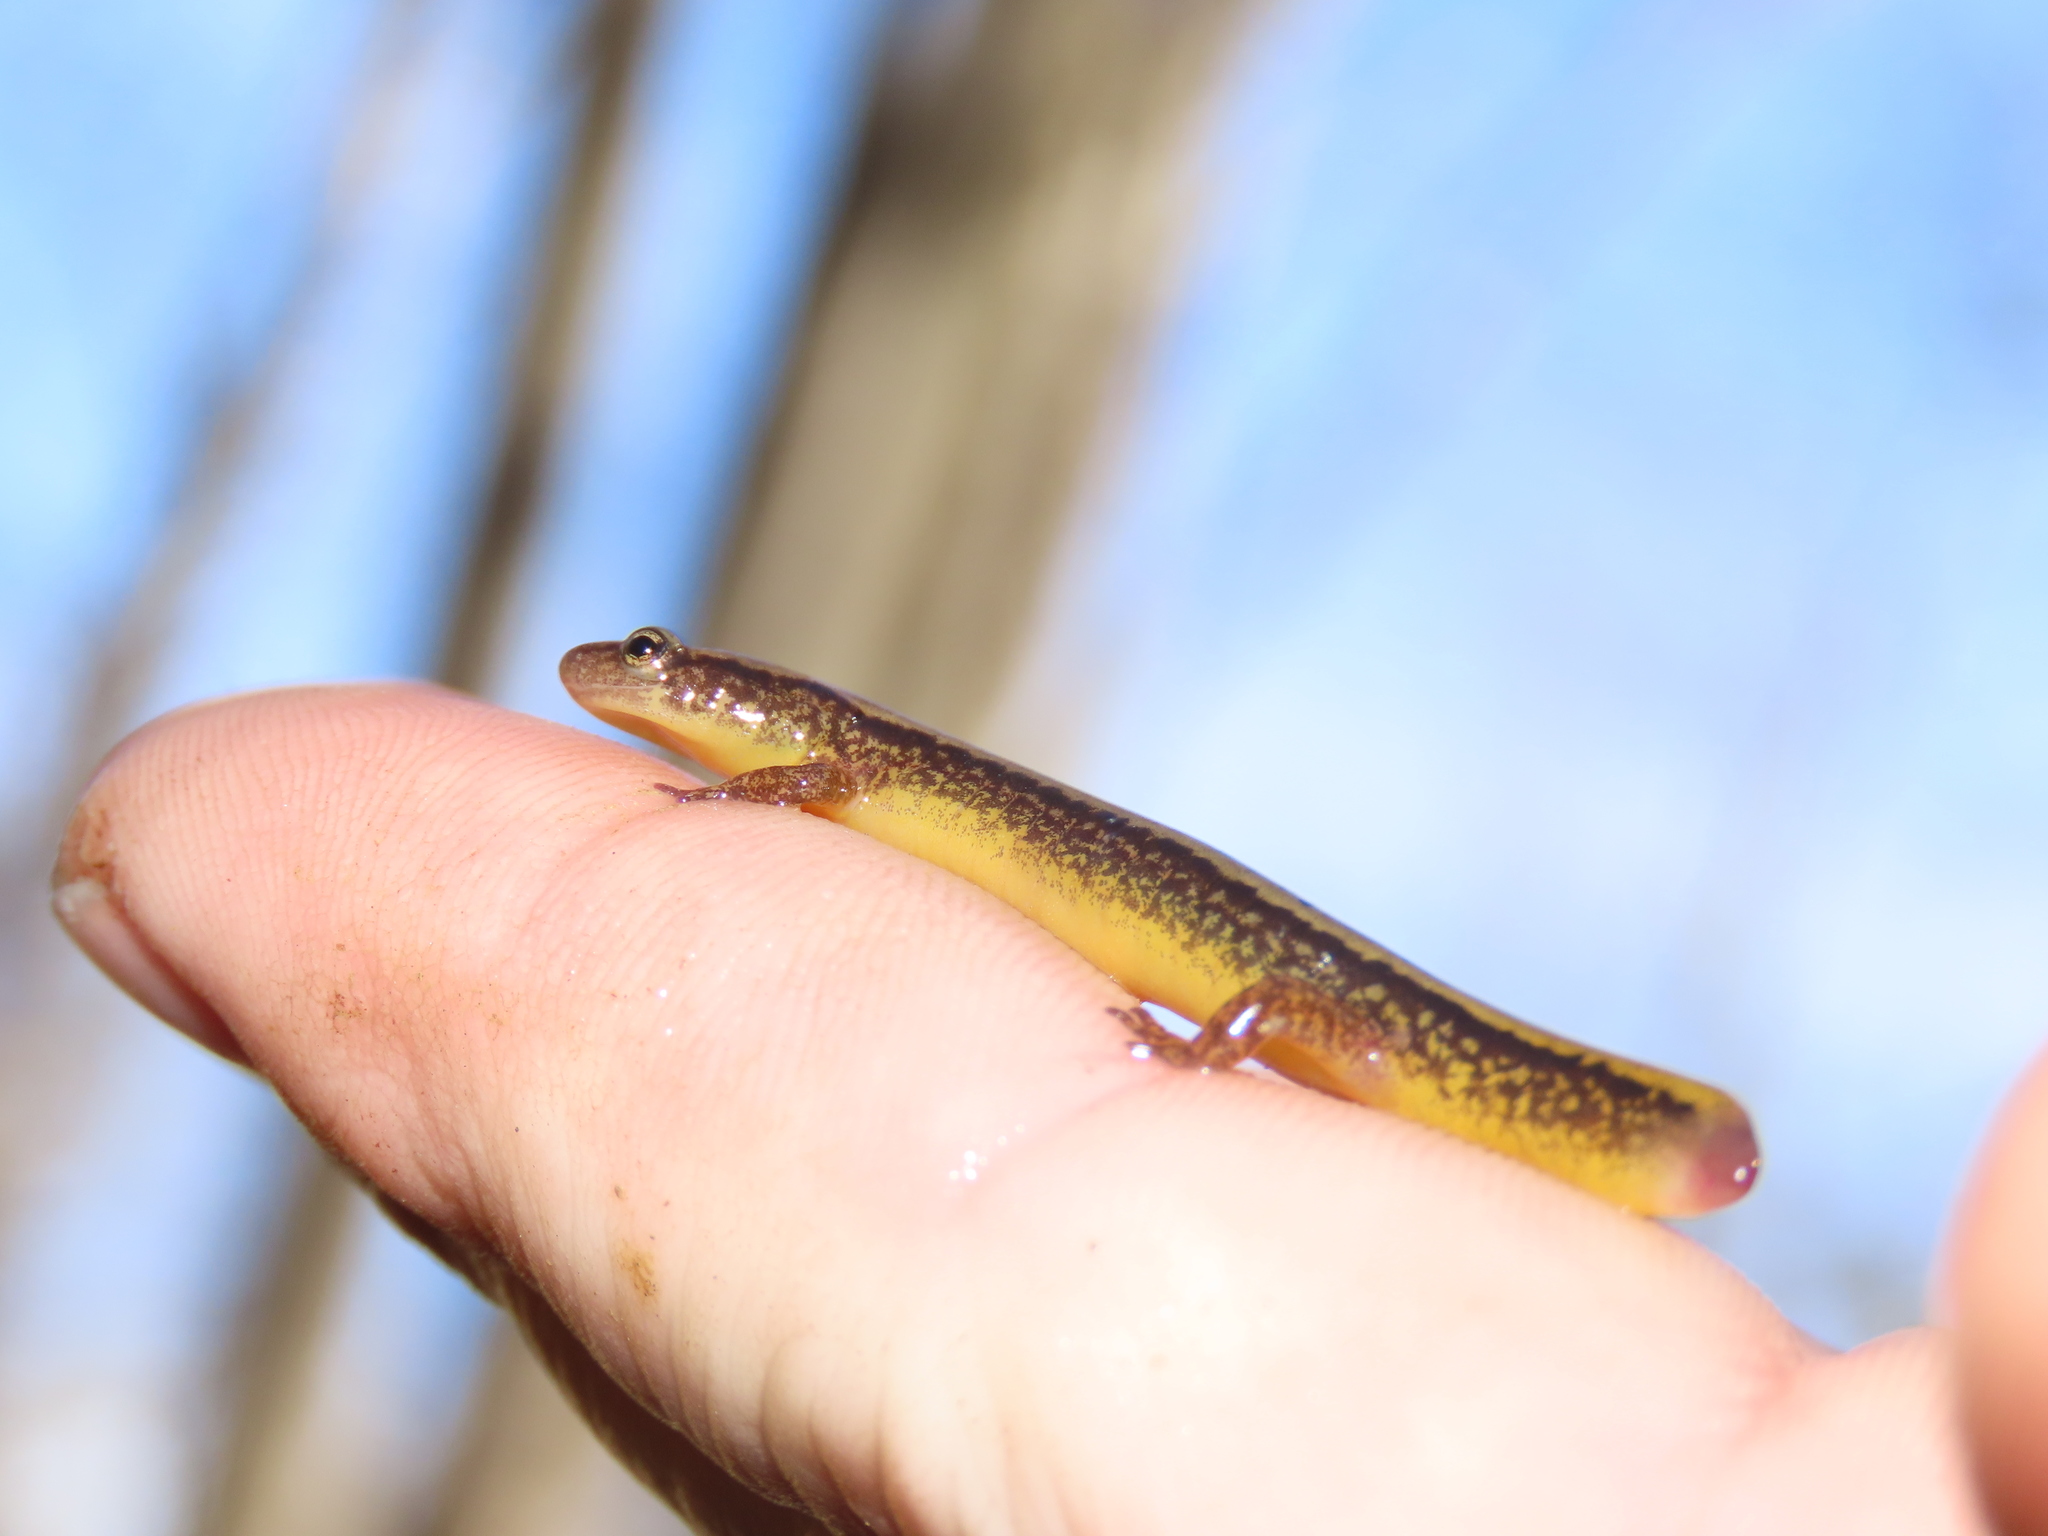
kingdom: Animalia
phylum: Chordata
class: Amphibia
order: Caudata
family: Plethodontidae
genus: Eurycea
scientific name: Eurycea bislineata
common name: Northern two-lined salamander
